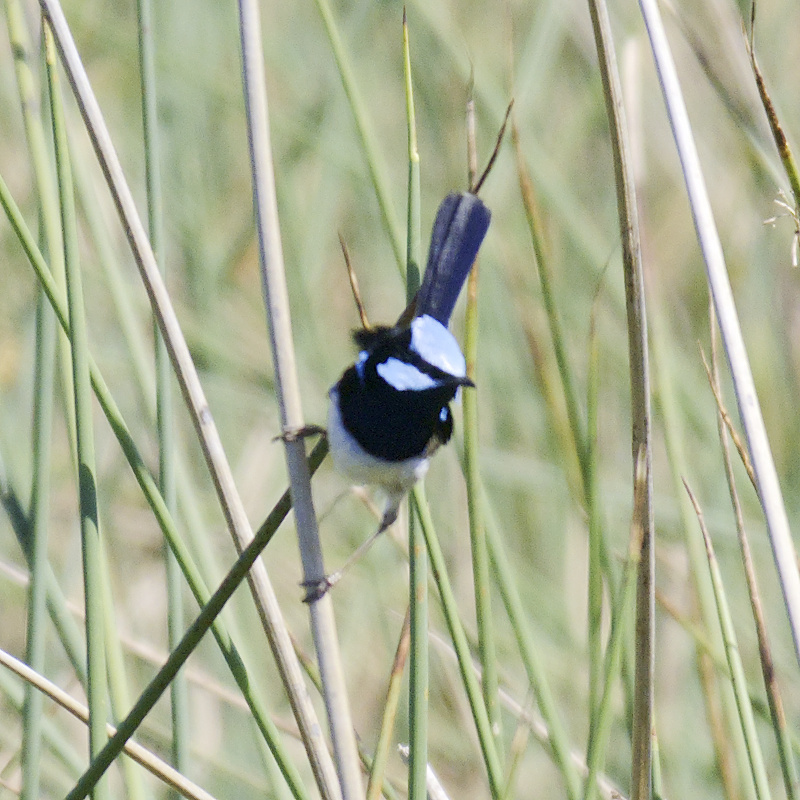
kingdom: Animalia
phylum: Chordata
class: Aves
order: Passeriformes
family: Maluridae
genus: Malurus
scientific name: Malurus cyaneus
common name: Superb fairywren
